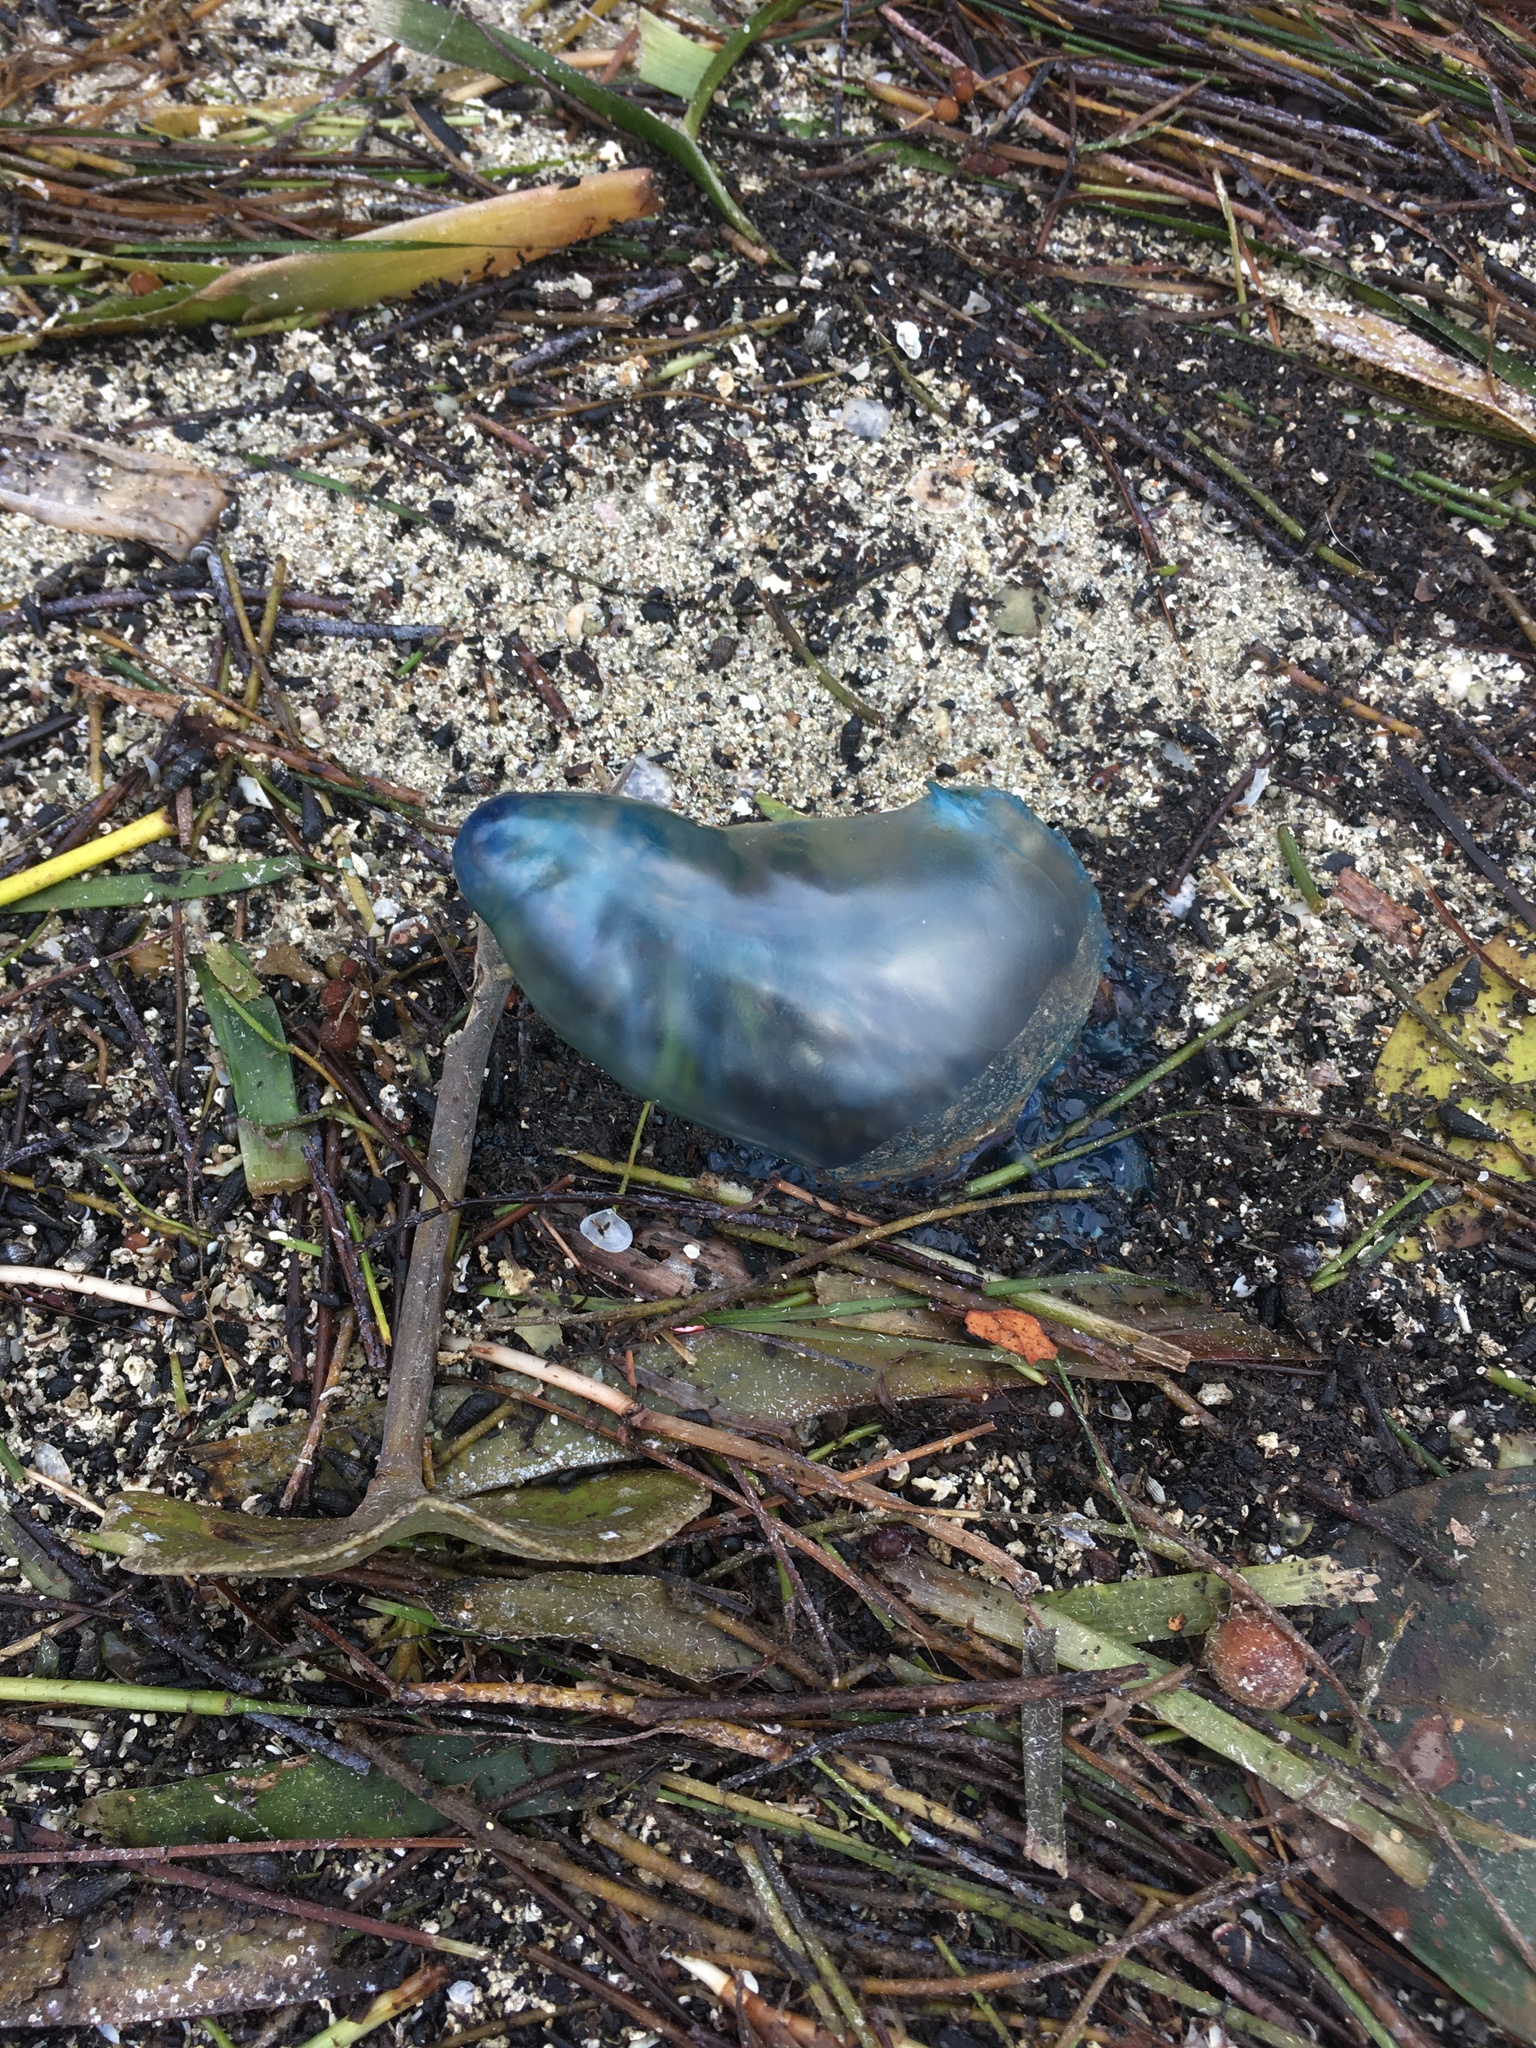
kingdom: Animalia
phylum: Cnidaria
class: Hydrozoa
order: Siphonophorae
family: Physaliidae
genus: Physalia
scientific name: Physalia physalis
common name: Portuguese man-of-war
